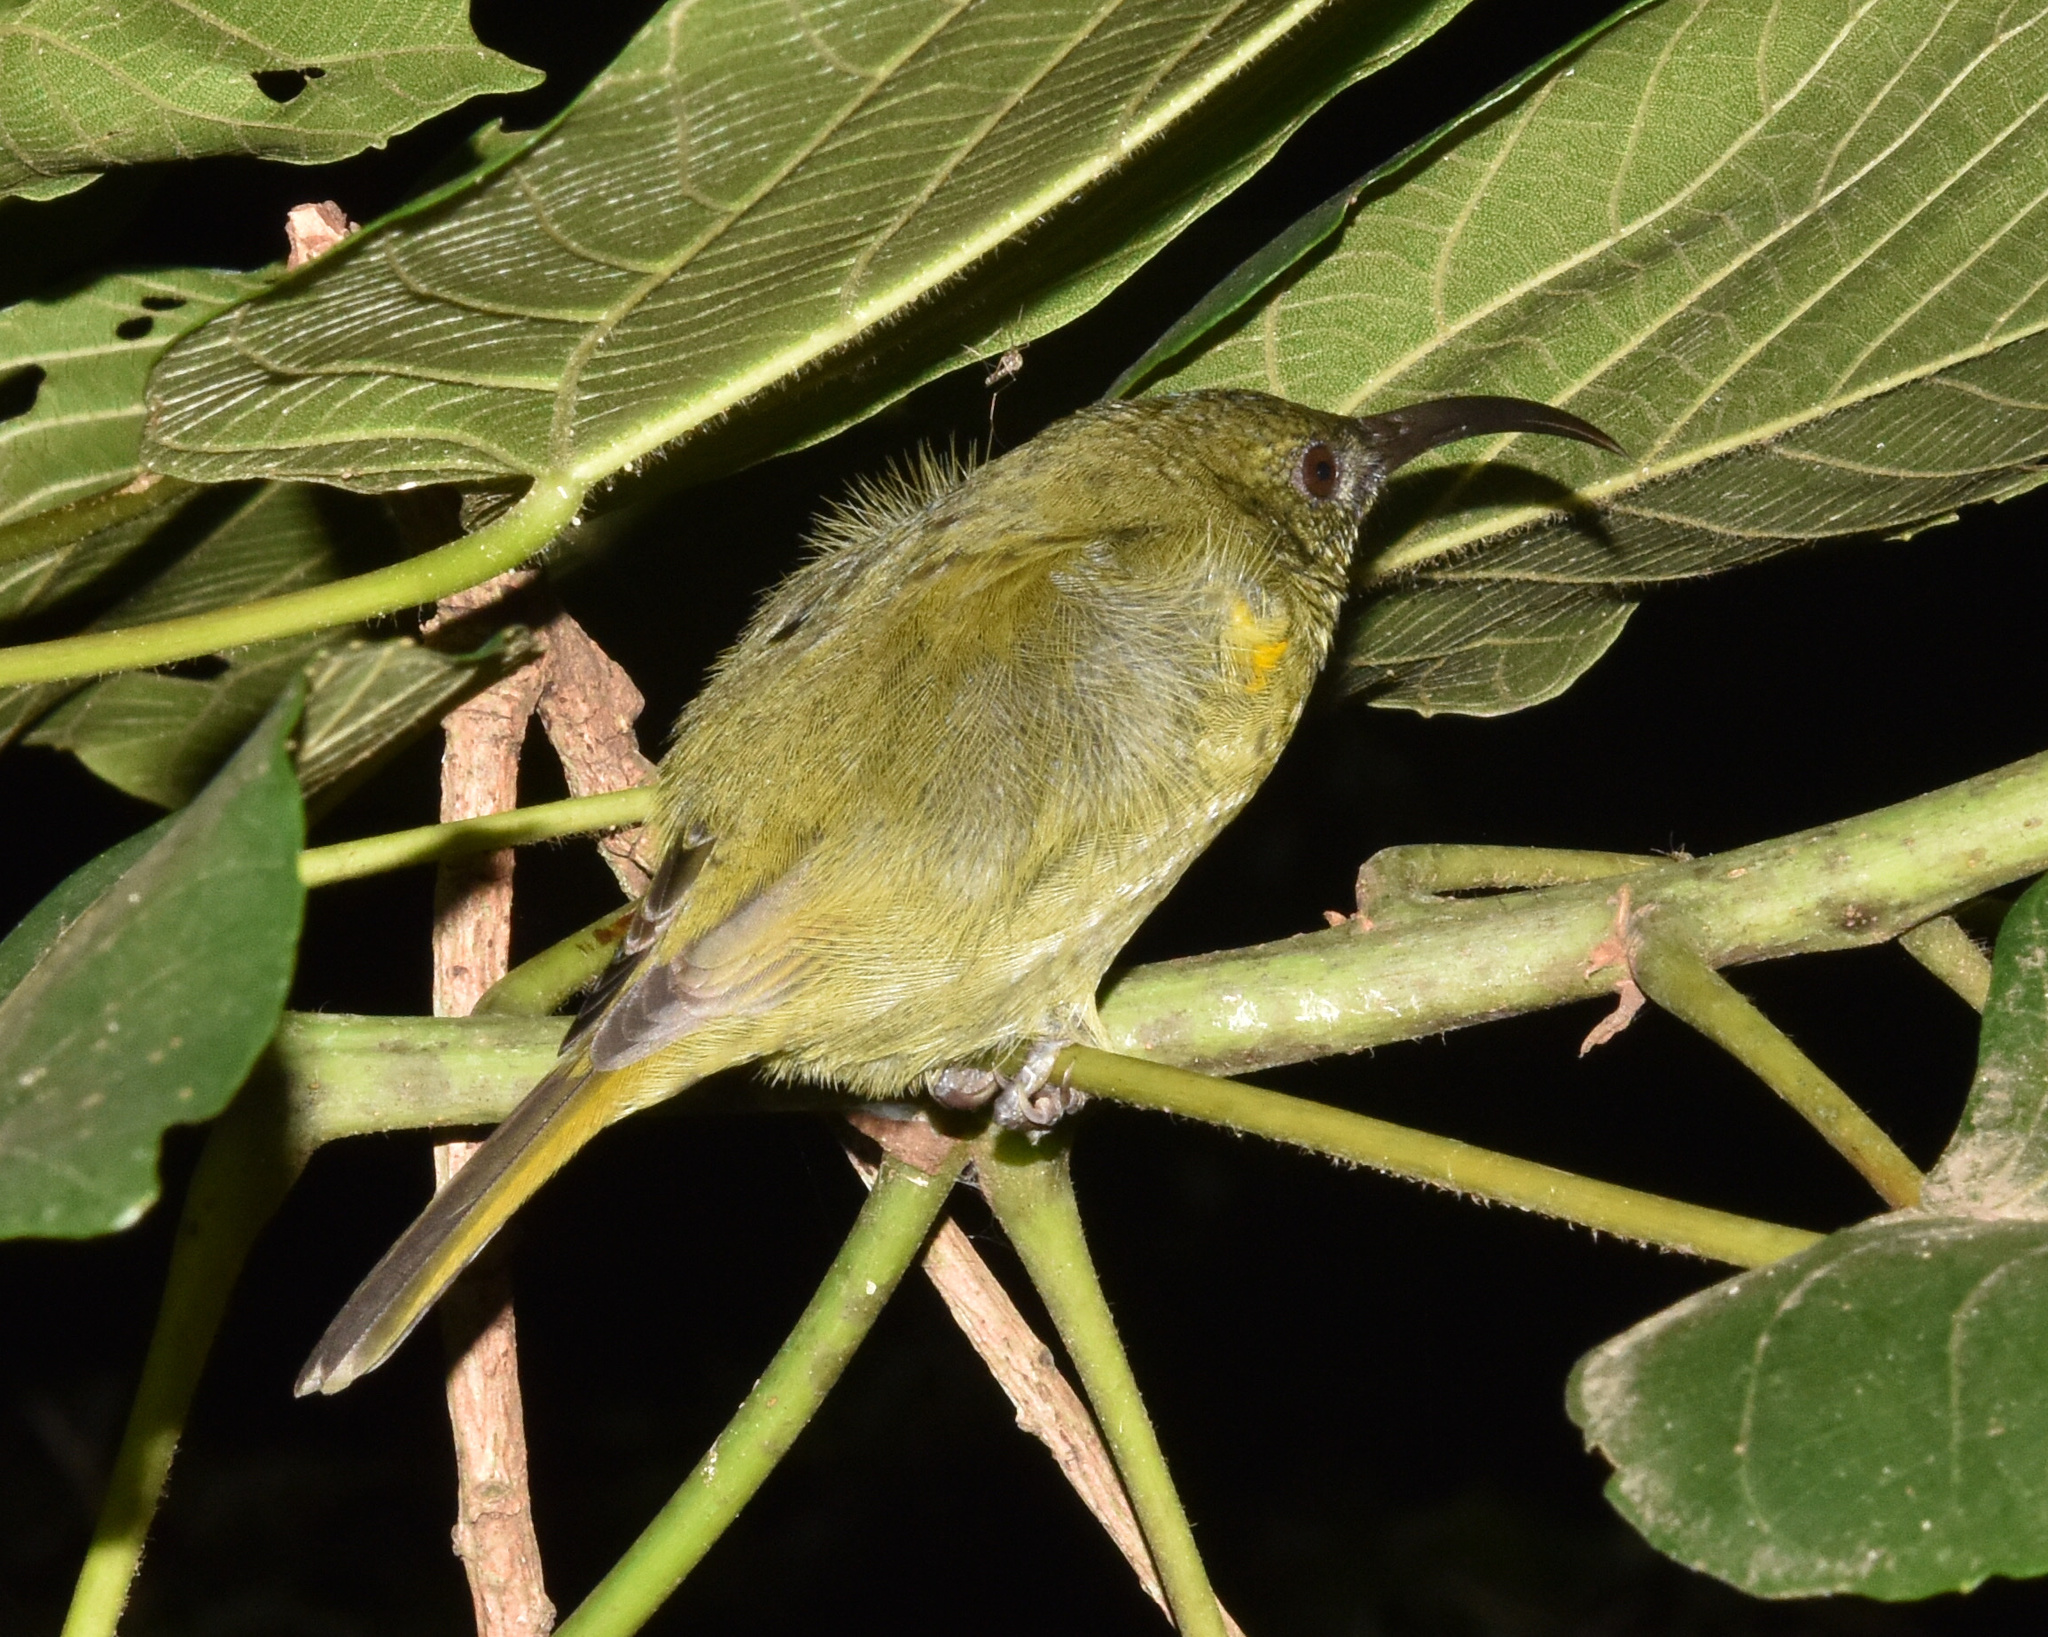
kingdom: Animalia
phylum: Chordata
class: Aves
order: Passeriformes
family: Nectariniidae
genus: Cyanomitra
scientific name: Cyanomitra olivacea
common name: Olive sunbird
